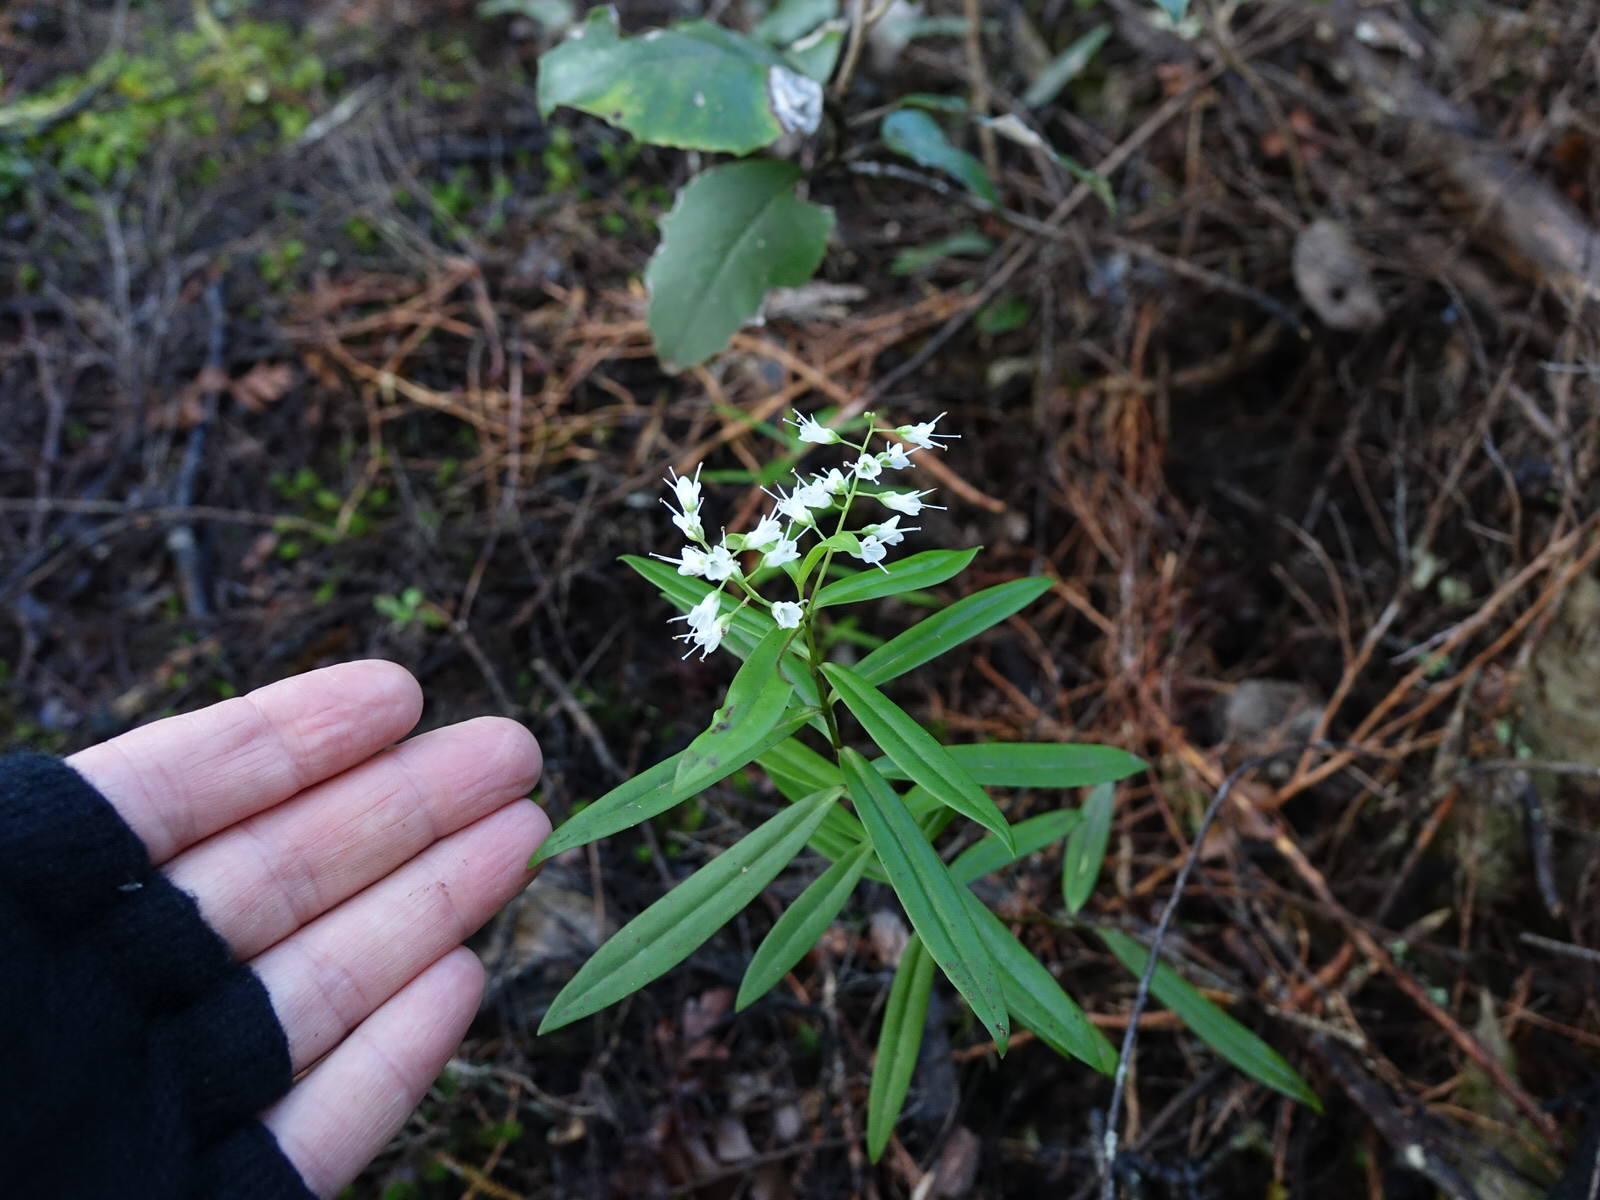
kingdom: Plantae
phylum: Tracheophyta
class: Magnoliopsida
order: Lamiales
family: Plantaginaceae
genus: Veronica
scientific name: Veronica macrocarpa
